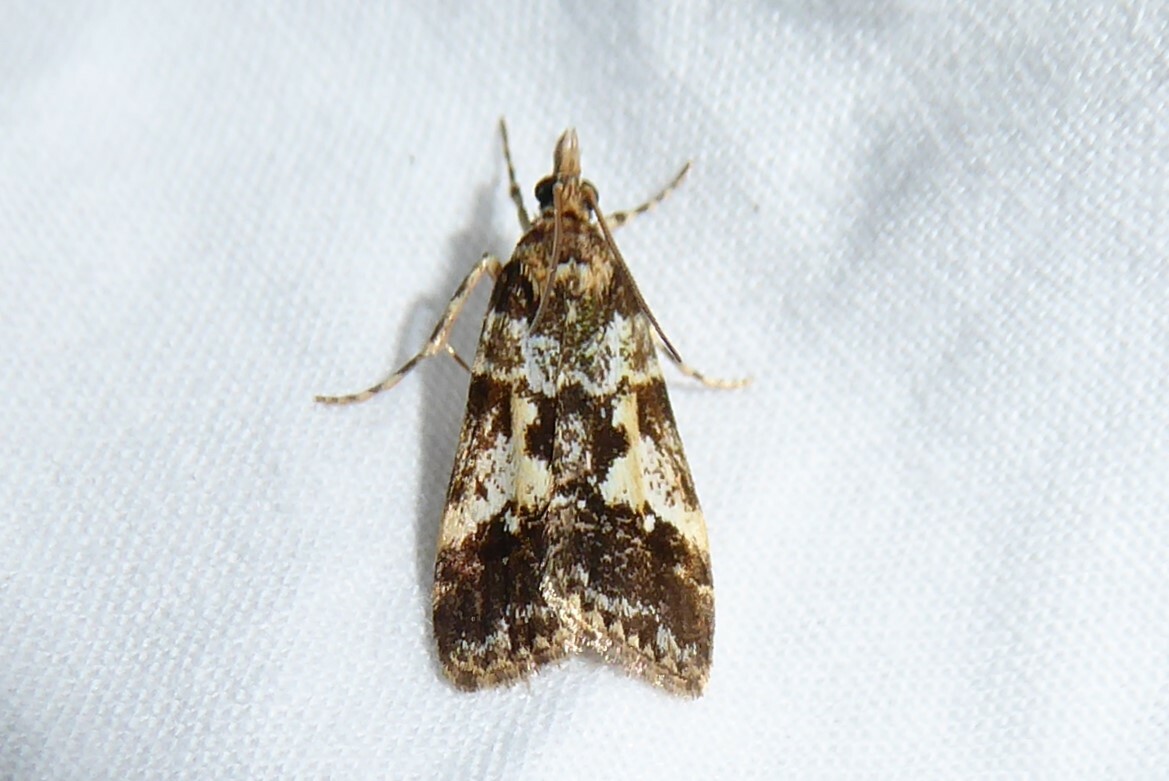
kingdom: Animalia
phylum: Arthropoda
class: Insecta
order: Lepidoptera
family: Crambidae
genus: Eudonia
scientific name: Eudonia characta
